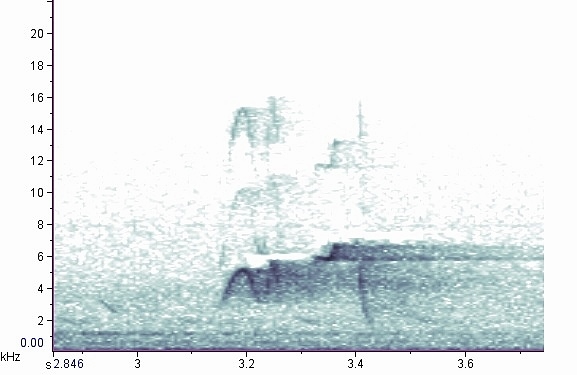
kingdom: Animalia
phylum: Chordata
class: Aves
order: Passeriformes
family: Tyrannidae
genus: Empidonax
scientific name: Empidonax virescens
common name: Acadian flycatcher
